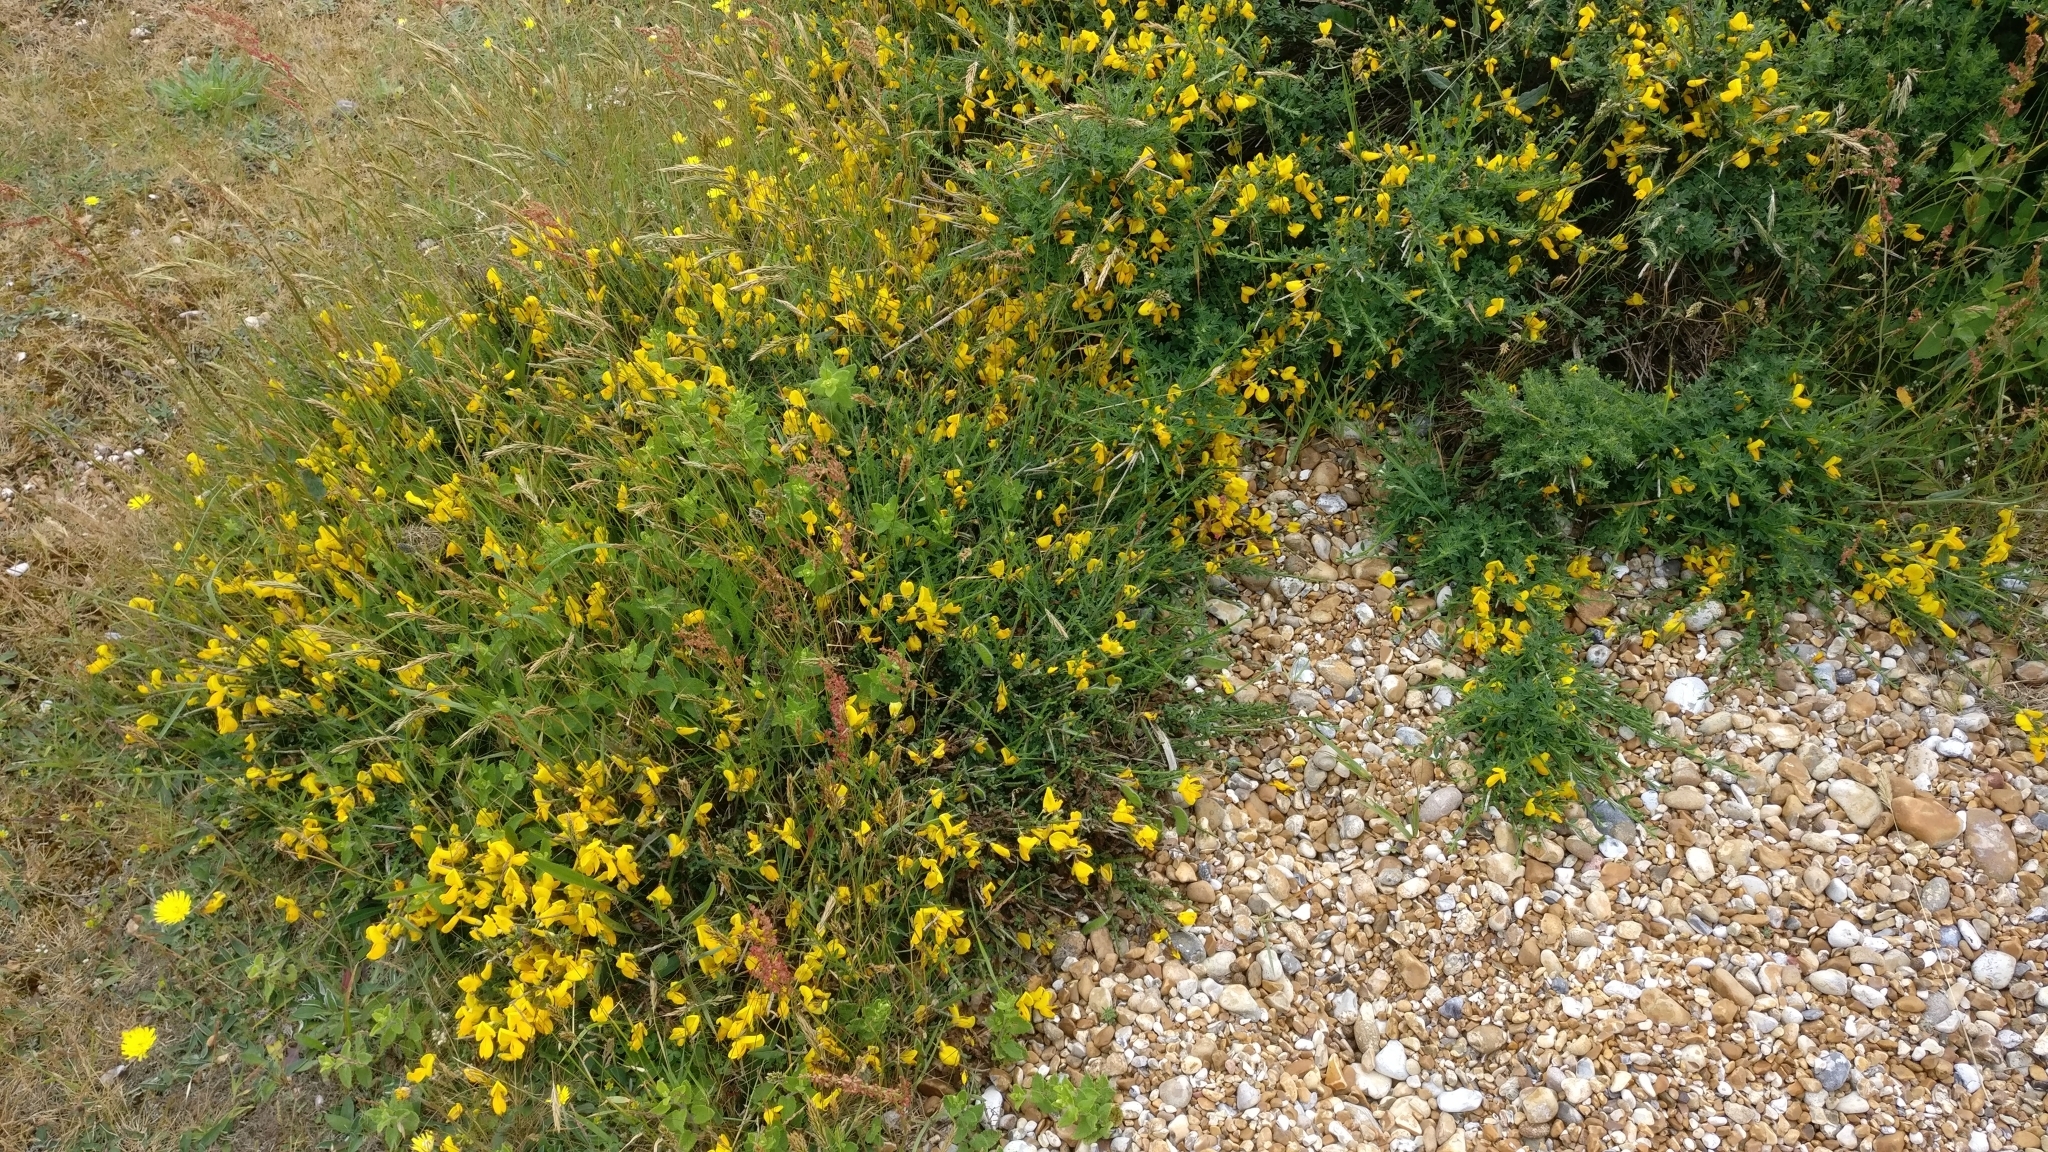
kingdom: Plantae
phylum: Tracheophyta
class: Magnoliopsida
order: Fabales
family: Fabaceae
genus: Cytisus
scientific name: Cytisus scoparius
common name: Scotch broom
